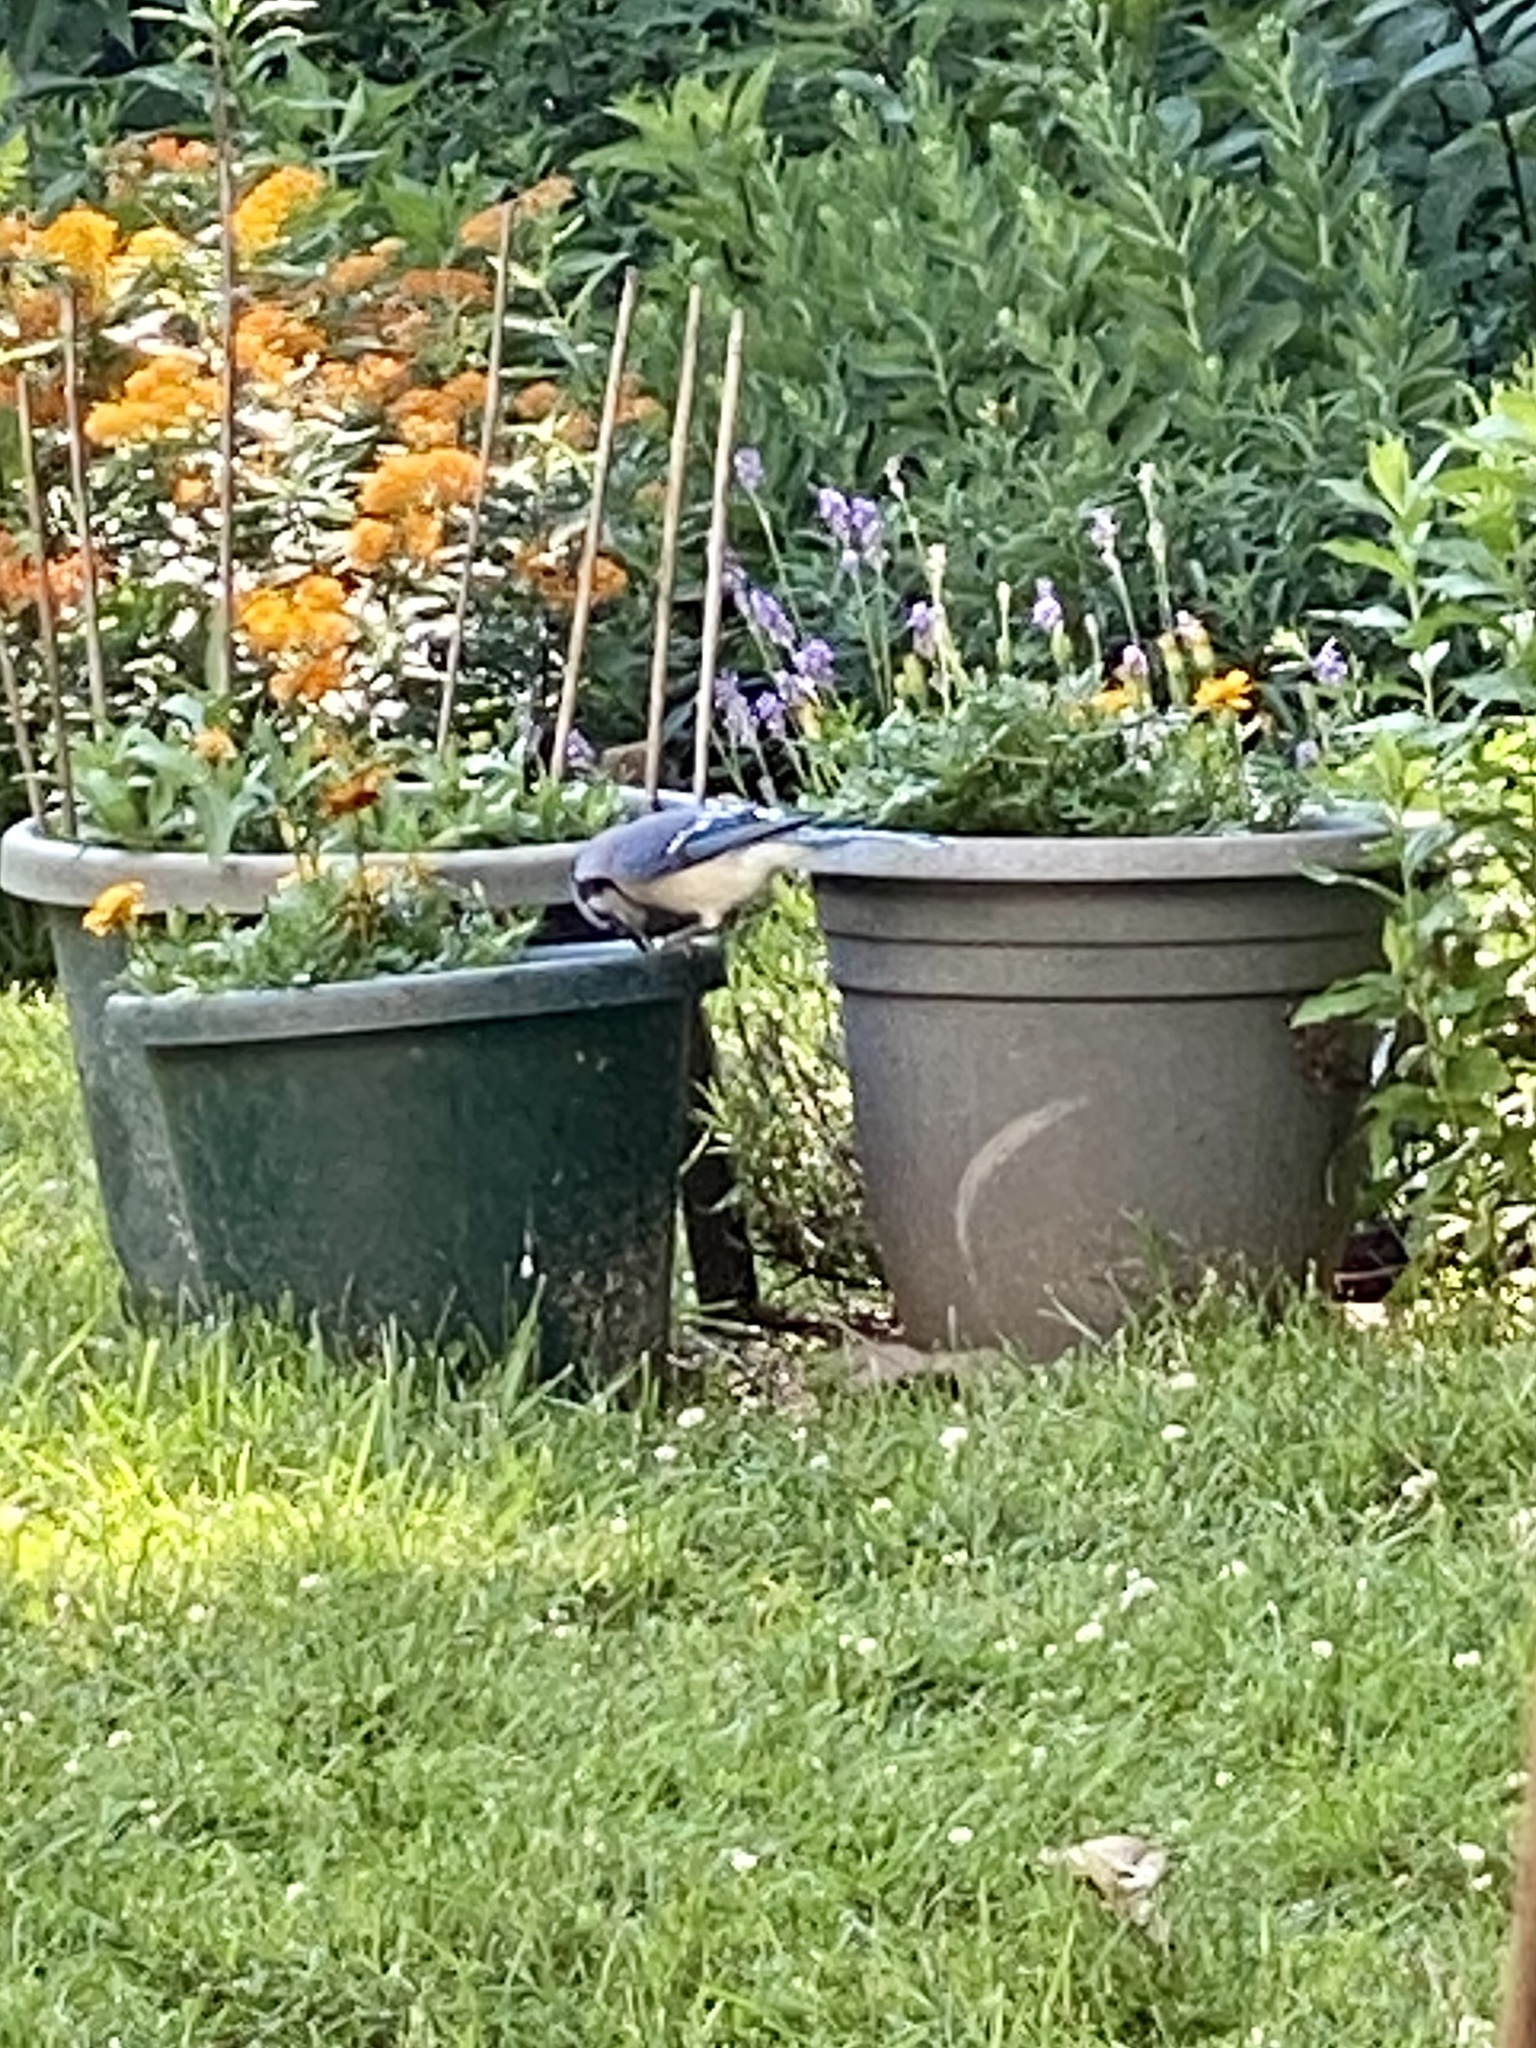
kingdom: Animalia
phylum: Chordata
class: Aves
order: Passeriformes
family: Corvidae
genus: Cyanocitta
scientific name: Cyanocitta cristata
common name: Blue jay
